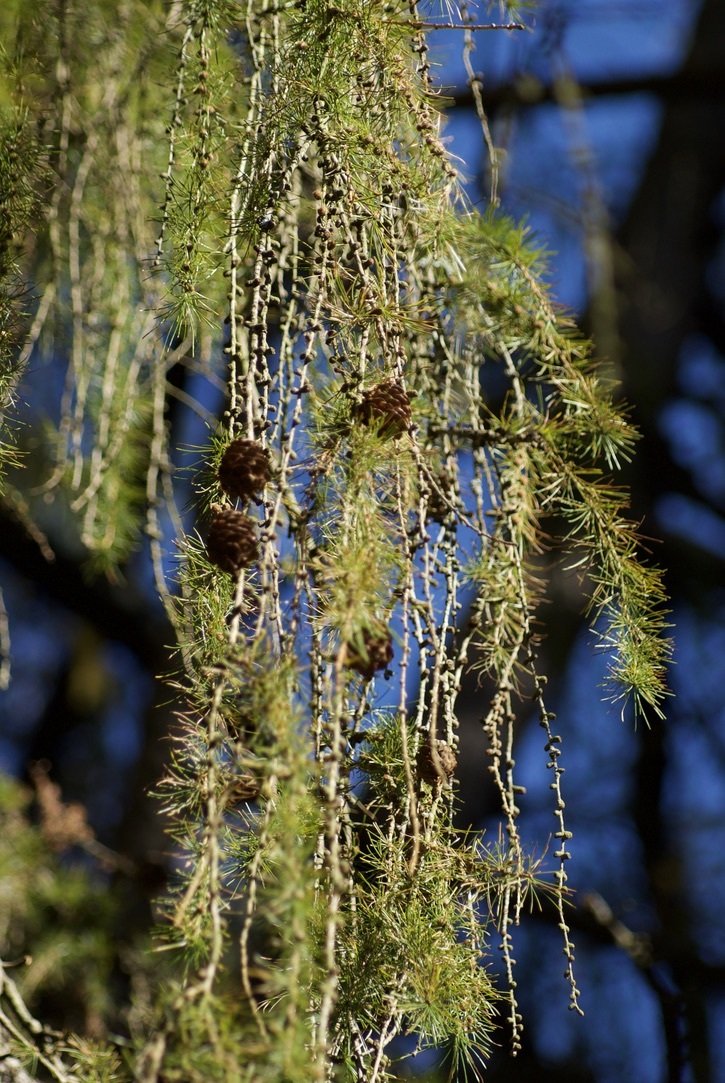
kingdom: Plantae
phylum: Tracheophyta
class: Pinopsida
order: Pinales
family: Pinaceae
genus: Larix
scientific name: Larix decidua
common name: European larch
